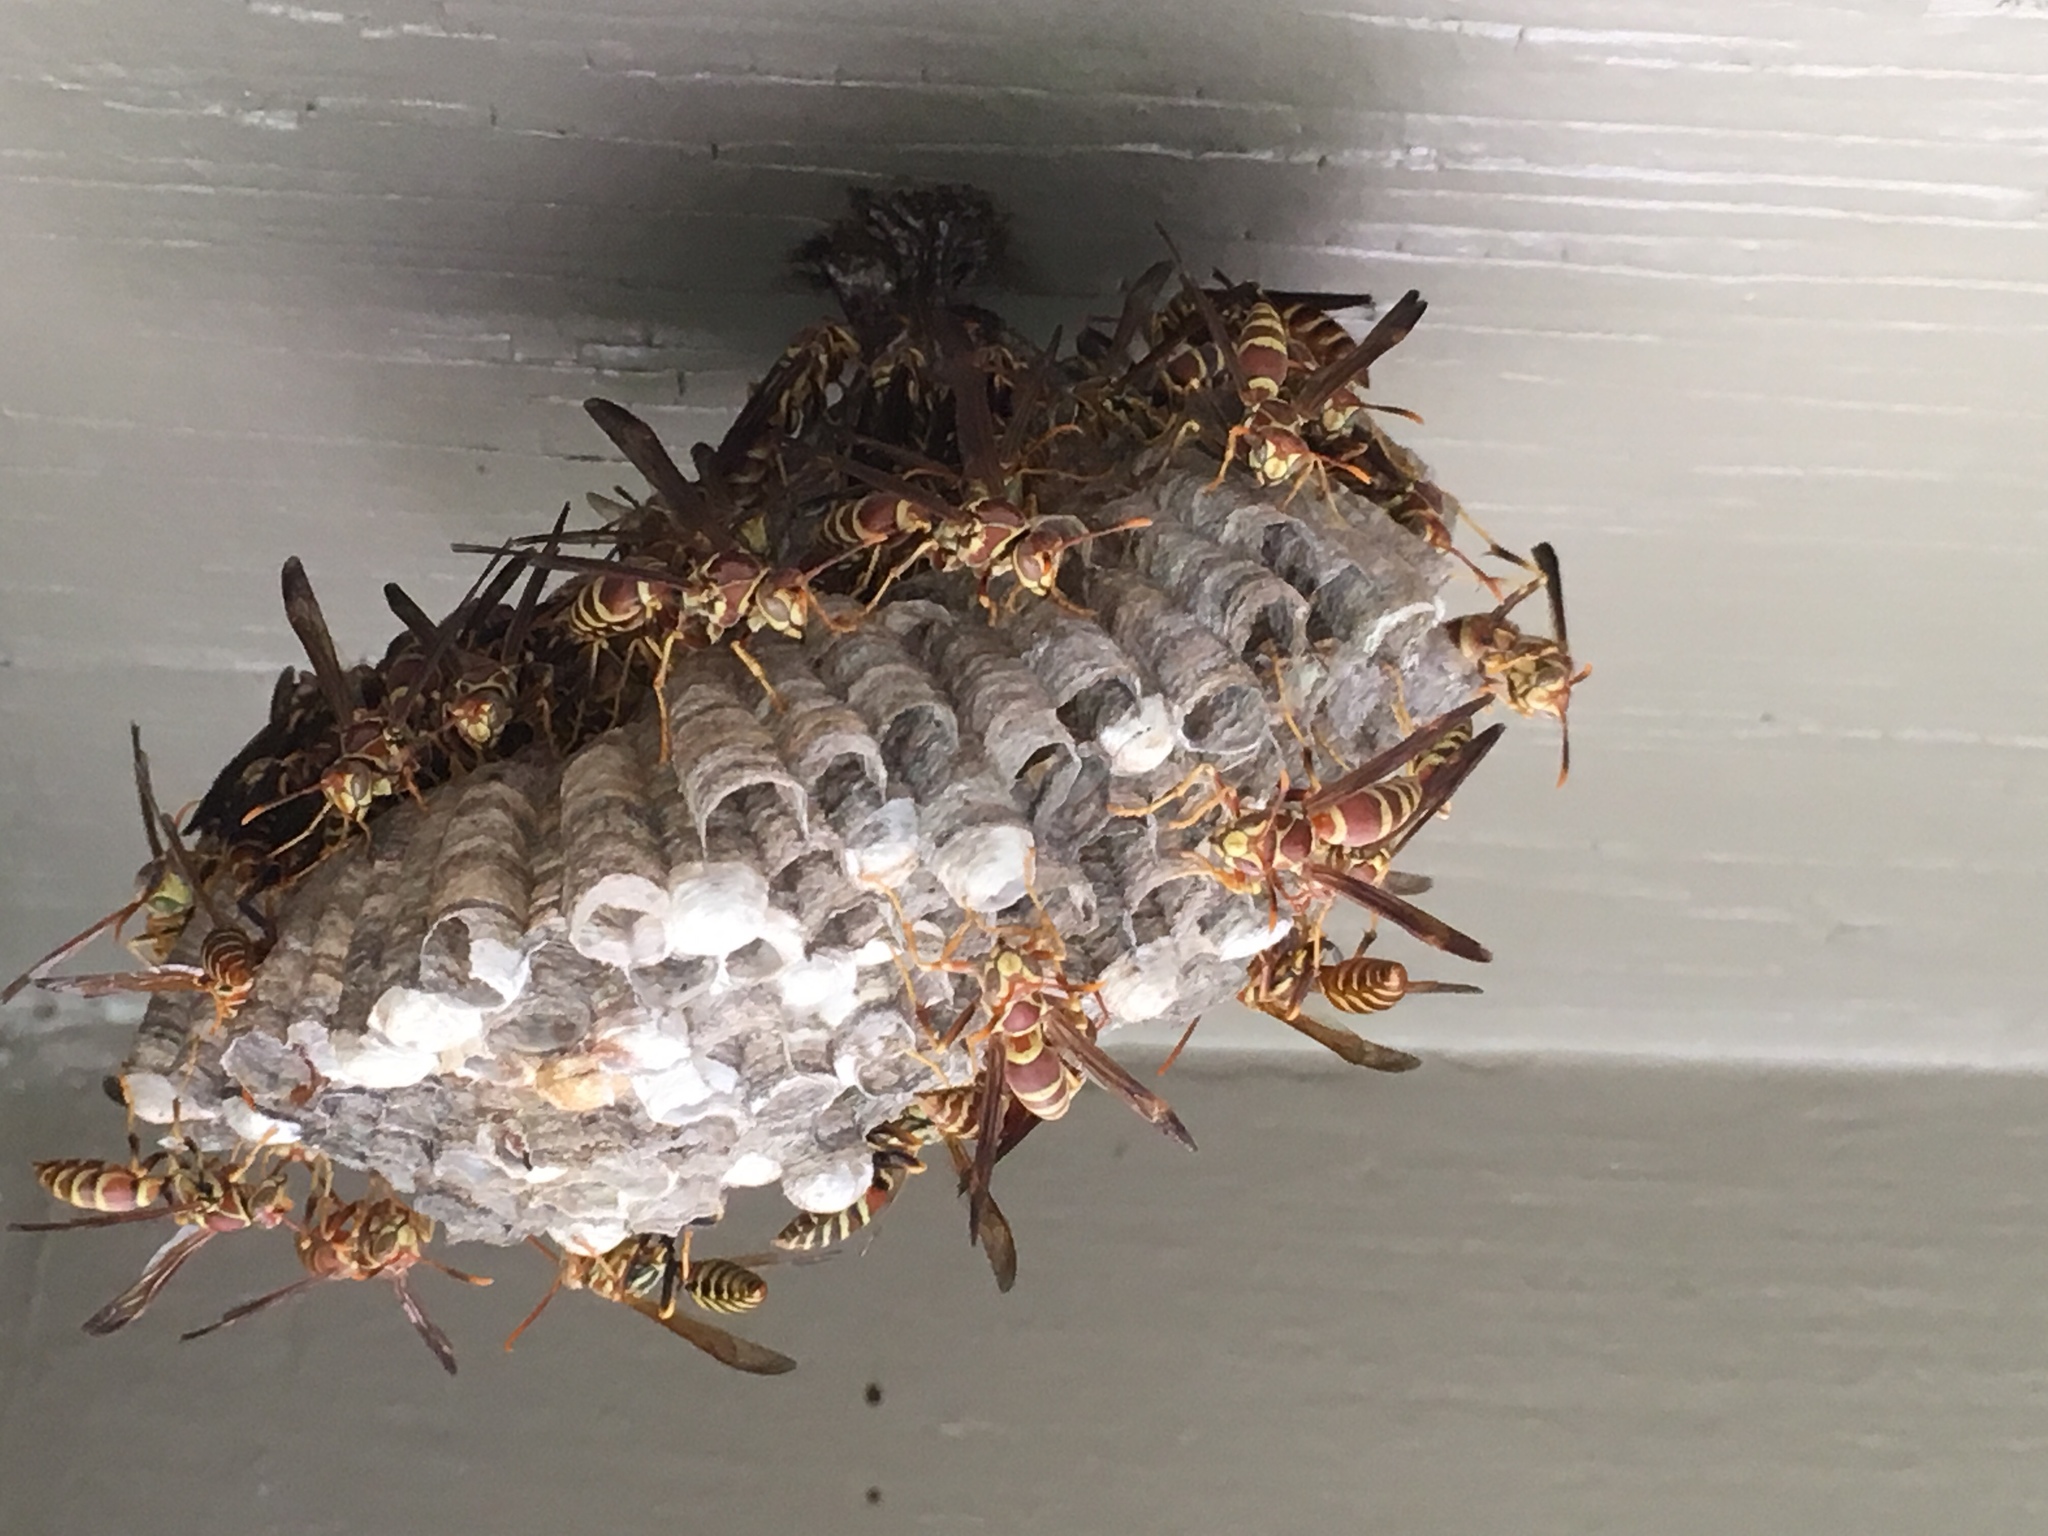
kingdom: Animalia
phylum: Arthropoda
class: Insecta
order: Hymenoptera
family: Eumenidae
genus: Polistes
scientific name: Polistes exclamans
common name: Paper wasp
